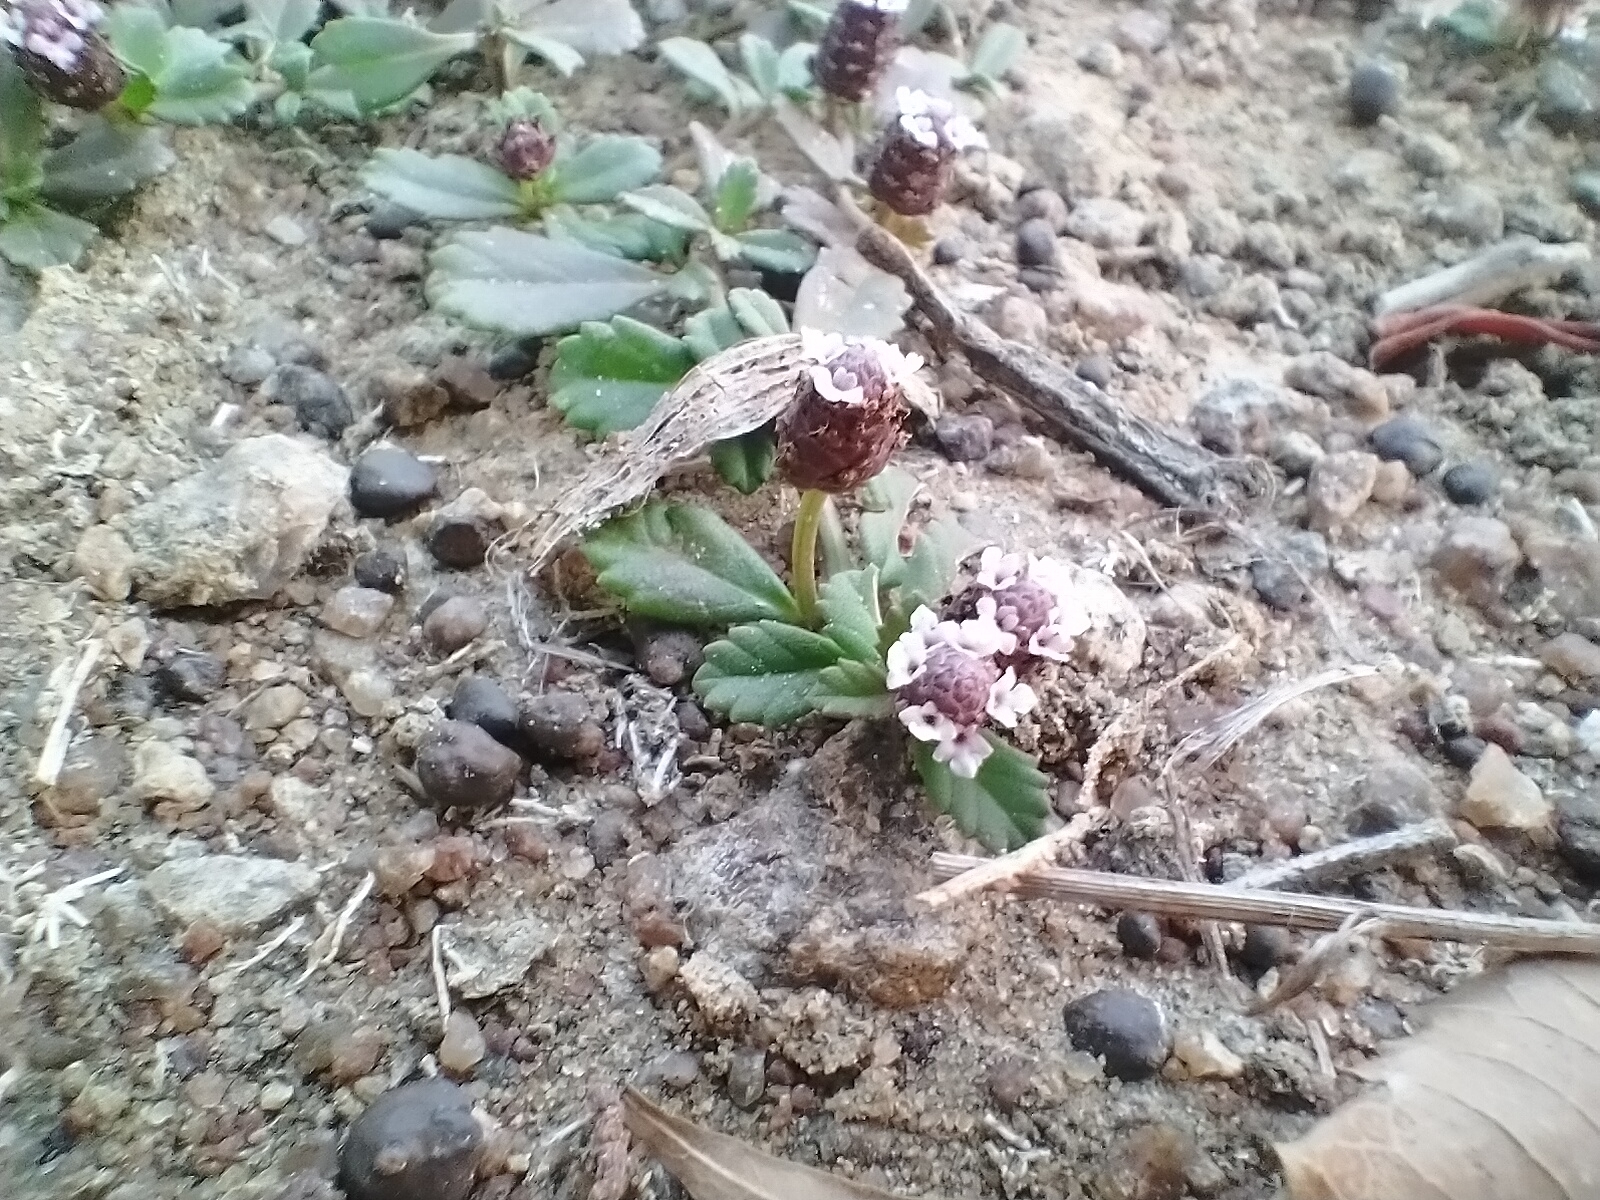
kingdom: Plantae
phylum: Tracheophyta
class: Magnoliopsida
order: Lamiales
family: Verbenaceae
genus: Phyla
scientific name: Phyla nodiflora
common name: Frogfruit
